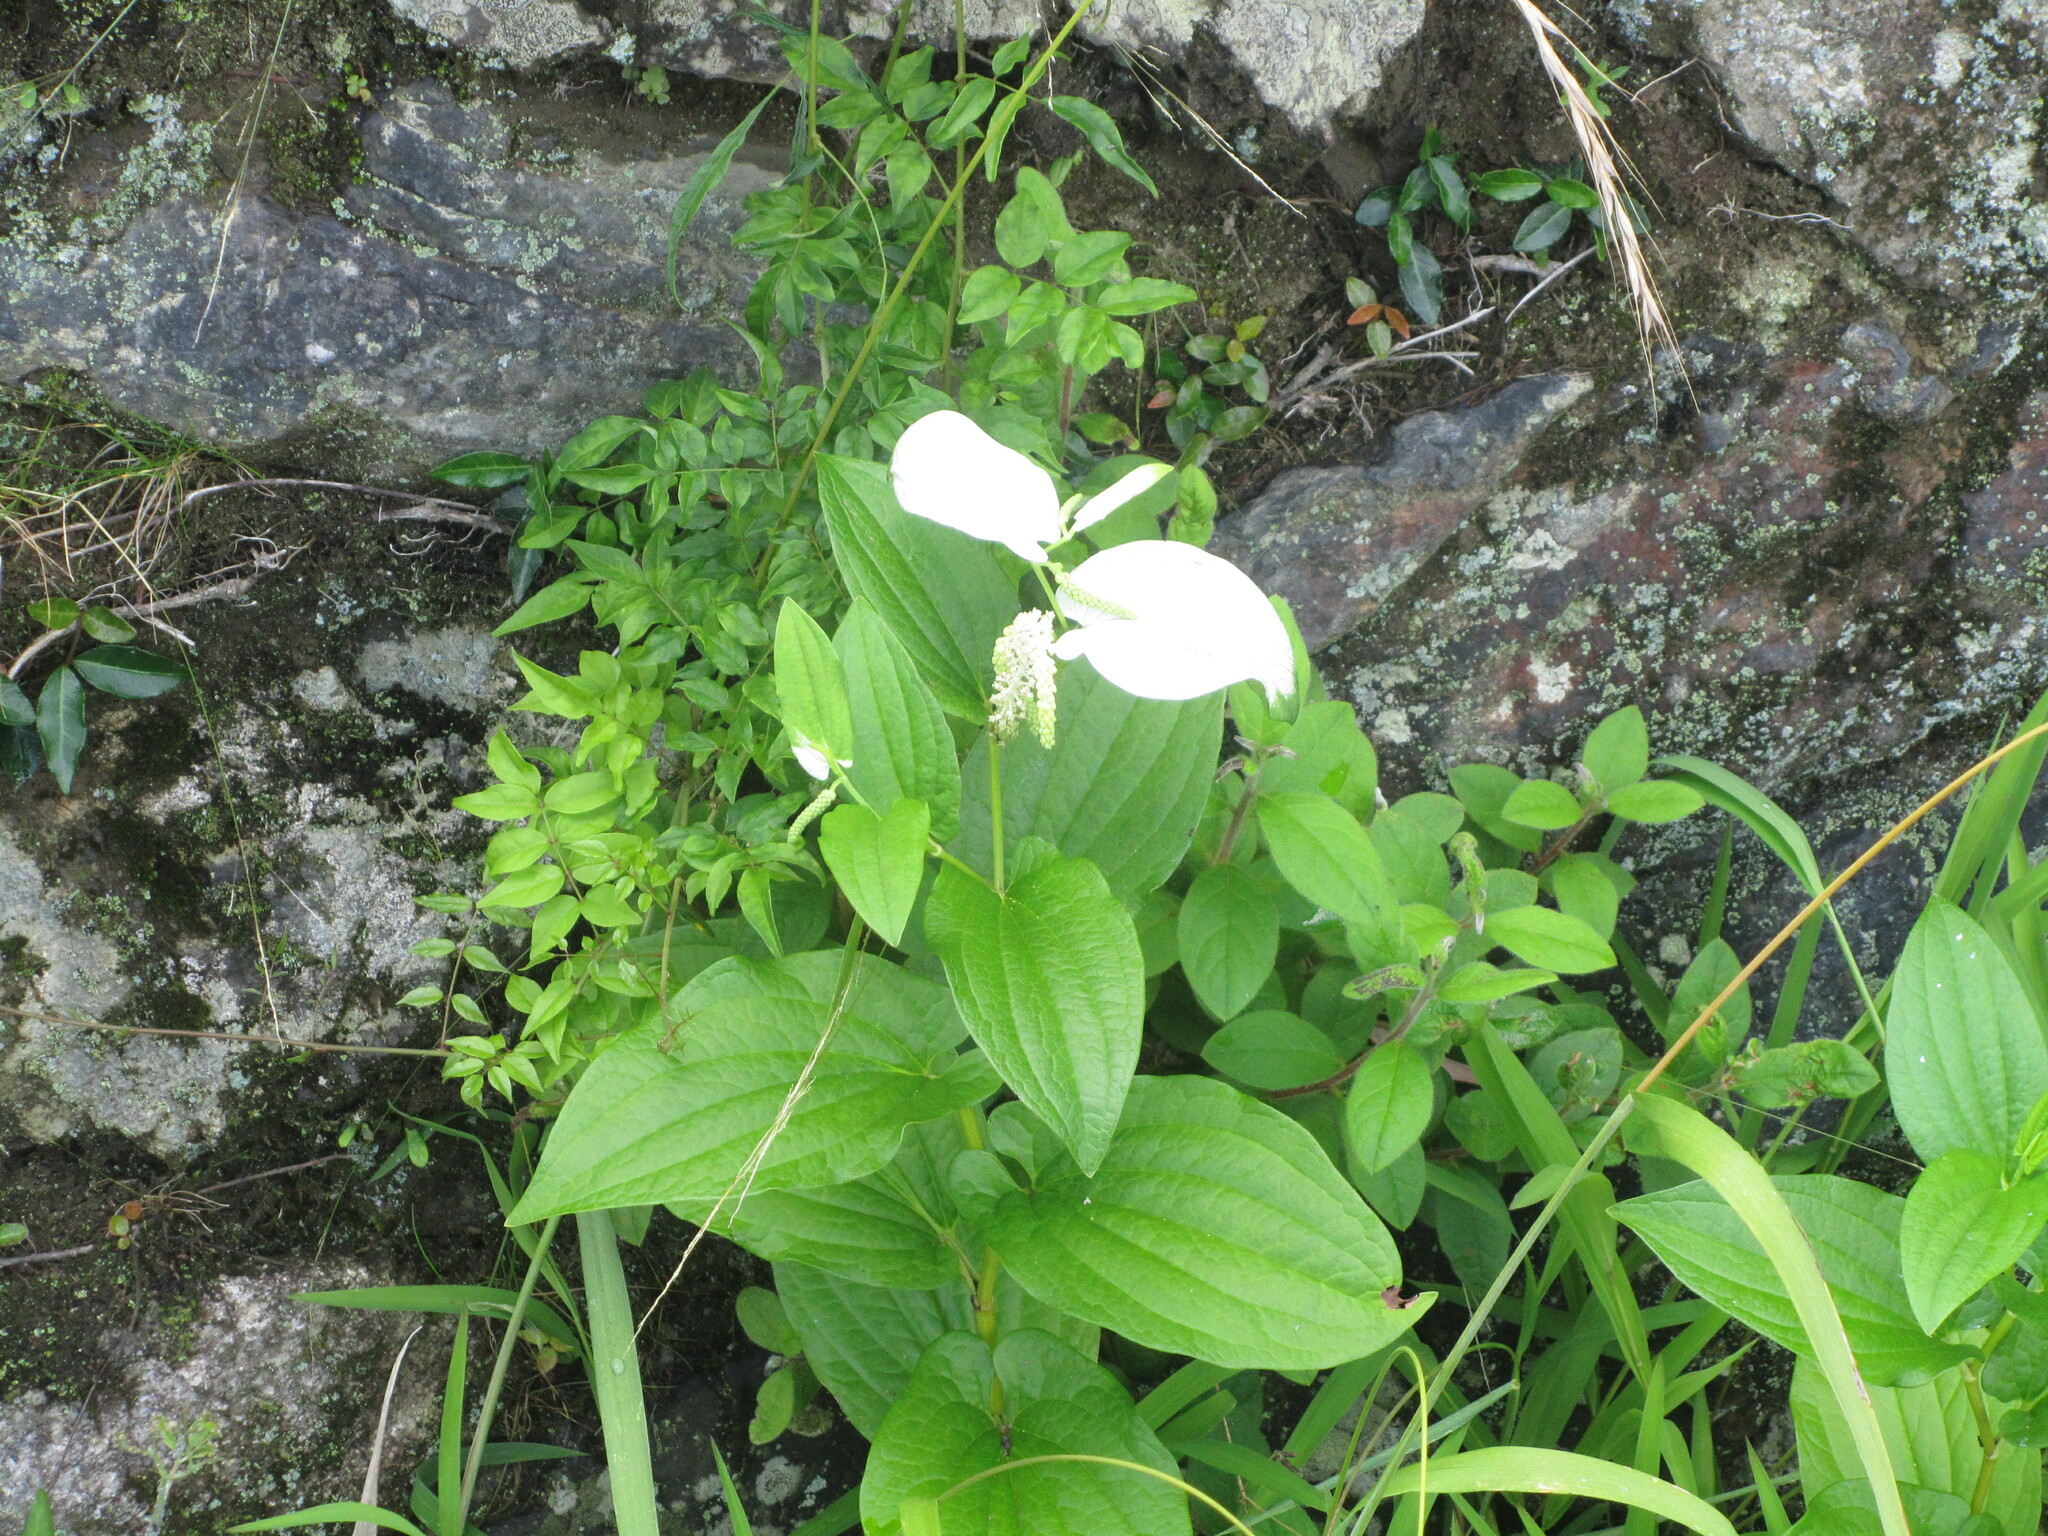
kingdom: Plantae
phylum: Tracheophyta
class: Magnoliopsida
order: Piperales
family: Saururaceae
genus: Saururus
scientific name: Saururus chinensis
